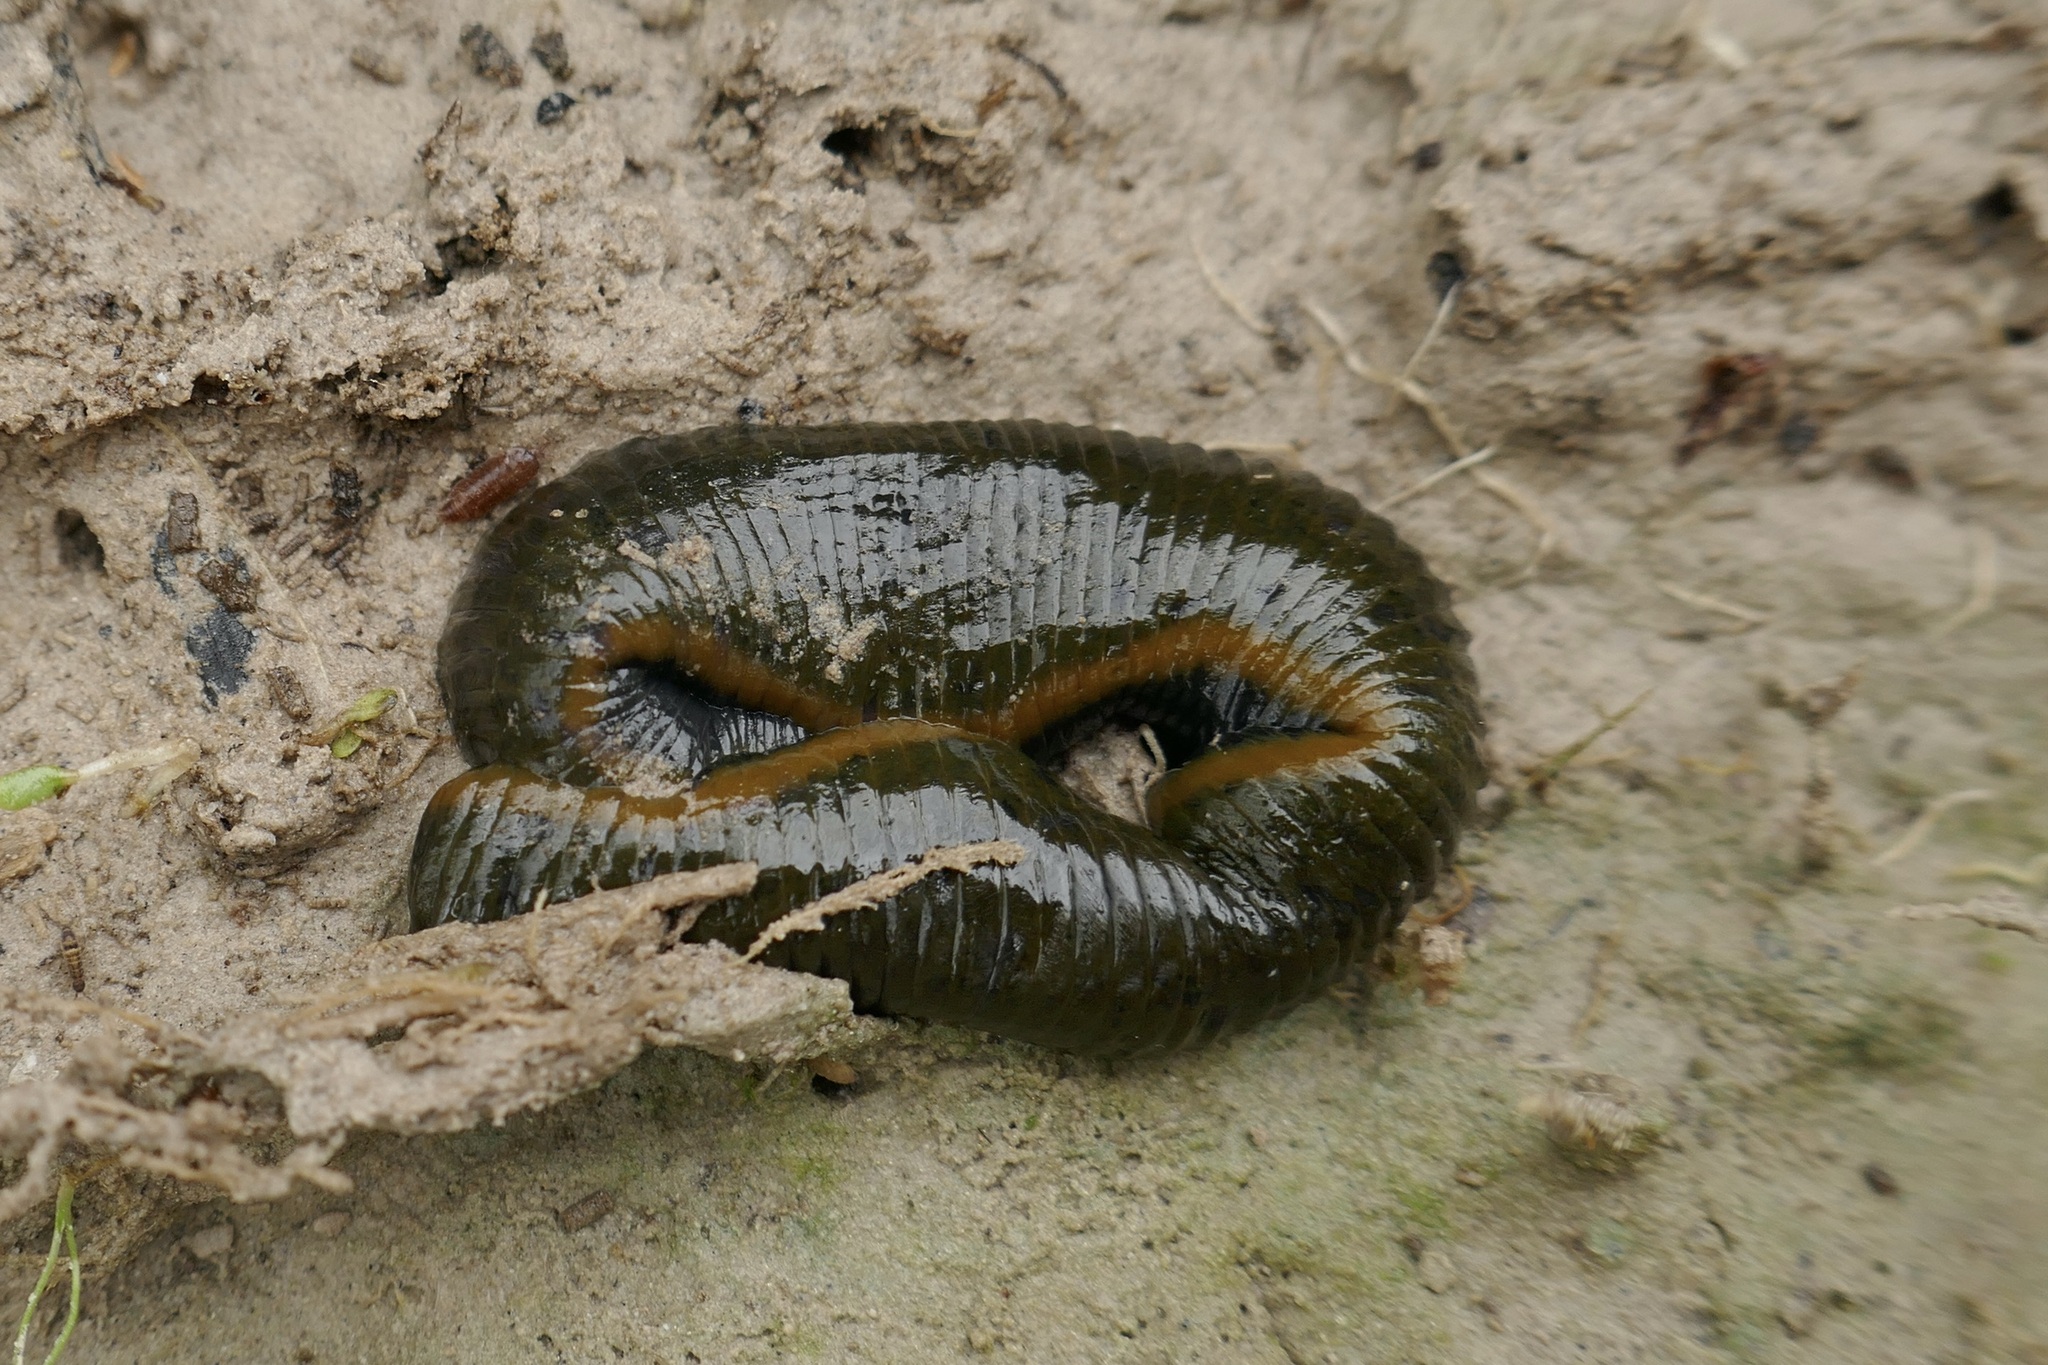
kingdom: Animalia
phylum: Annelida
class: Clitellata
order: Arhynchobdellida
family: Haemopidae
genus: Haemopis
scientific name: Haemopis elegans
